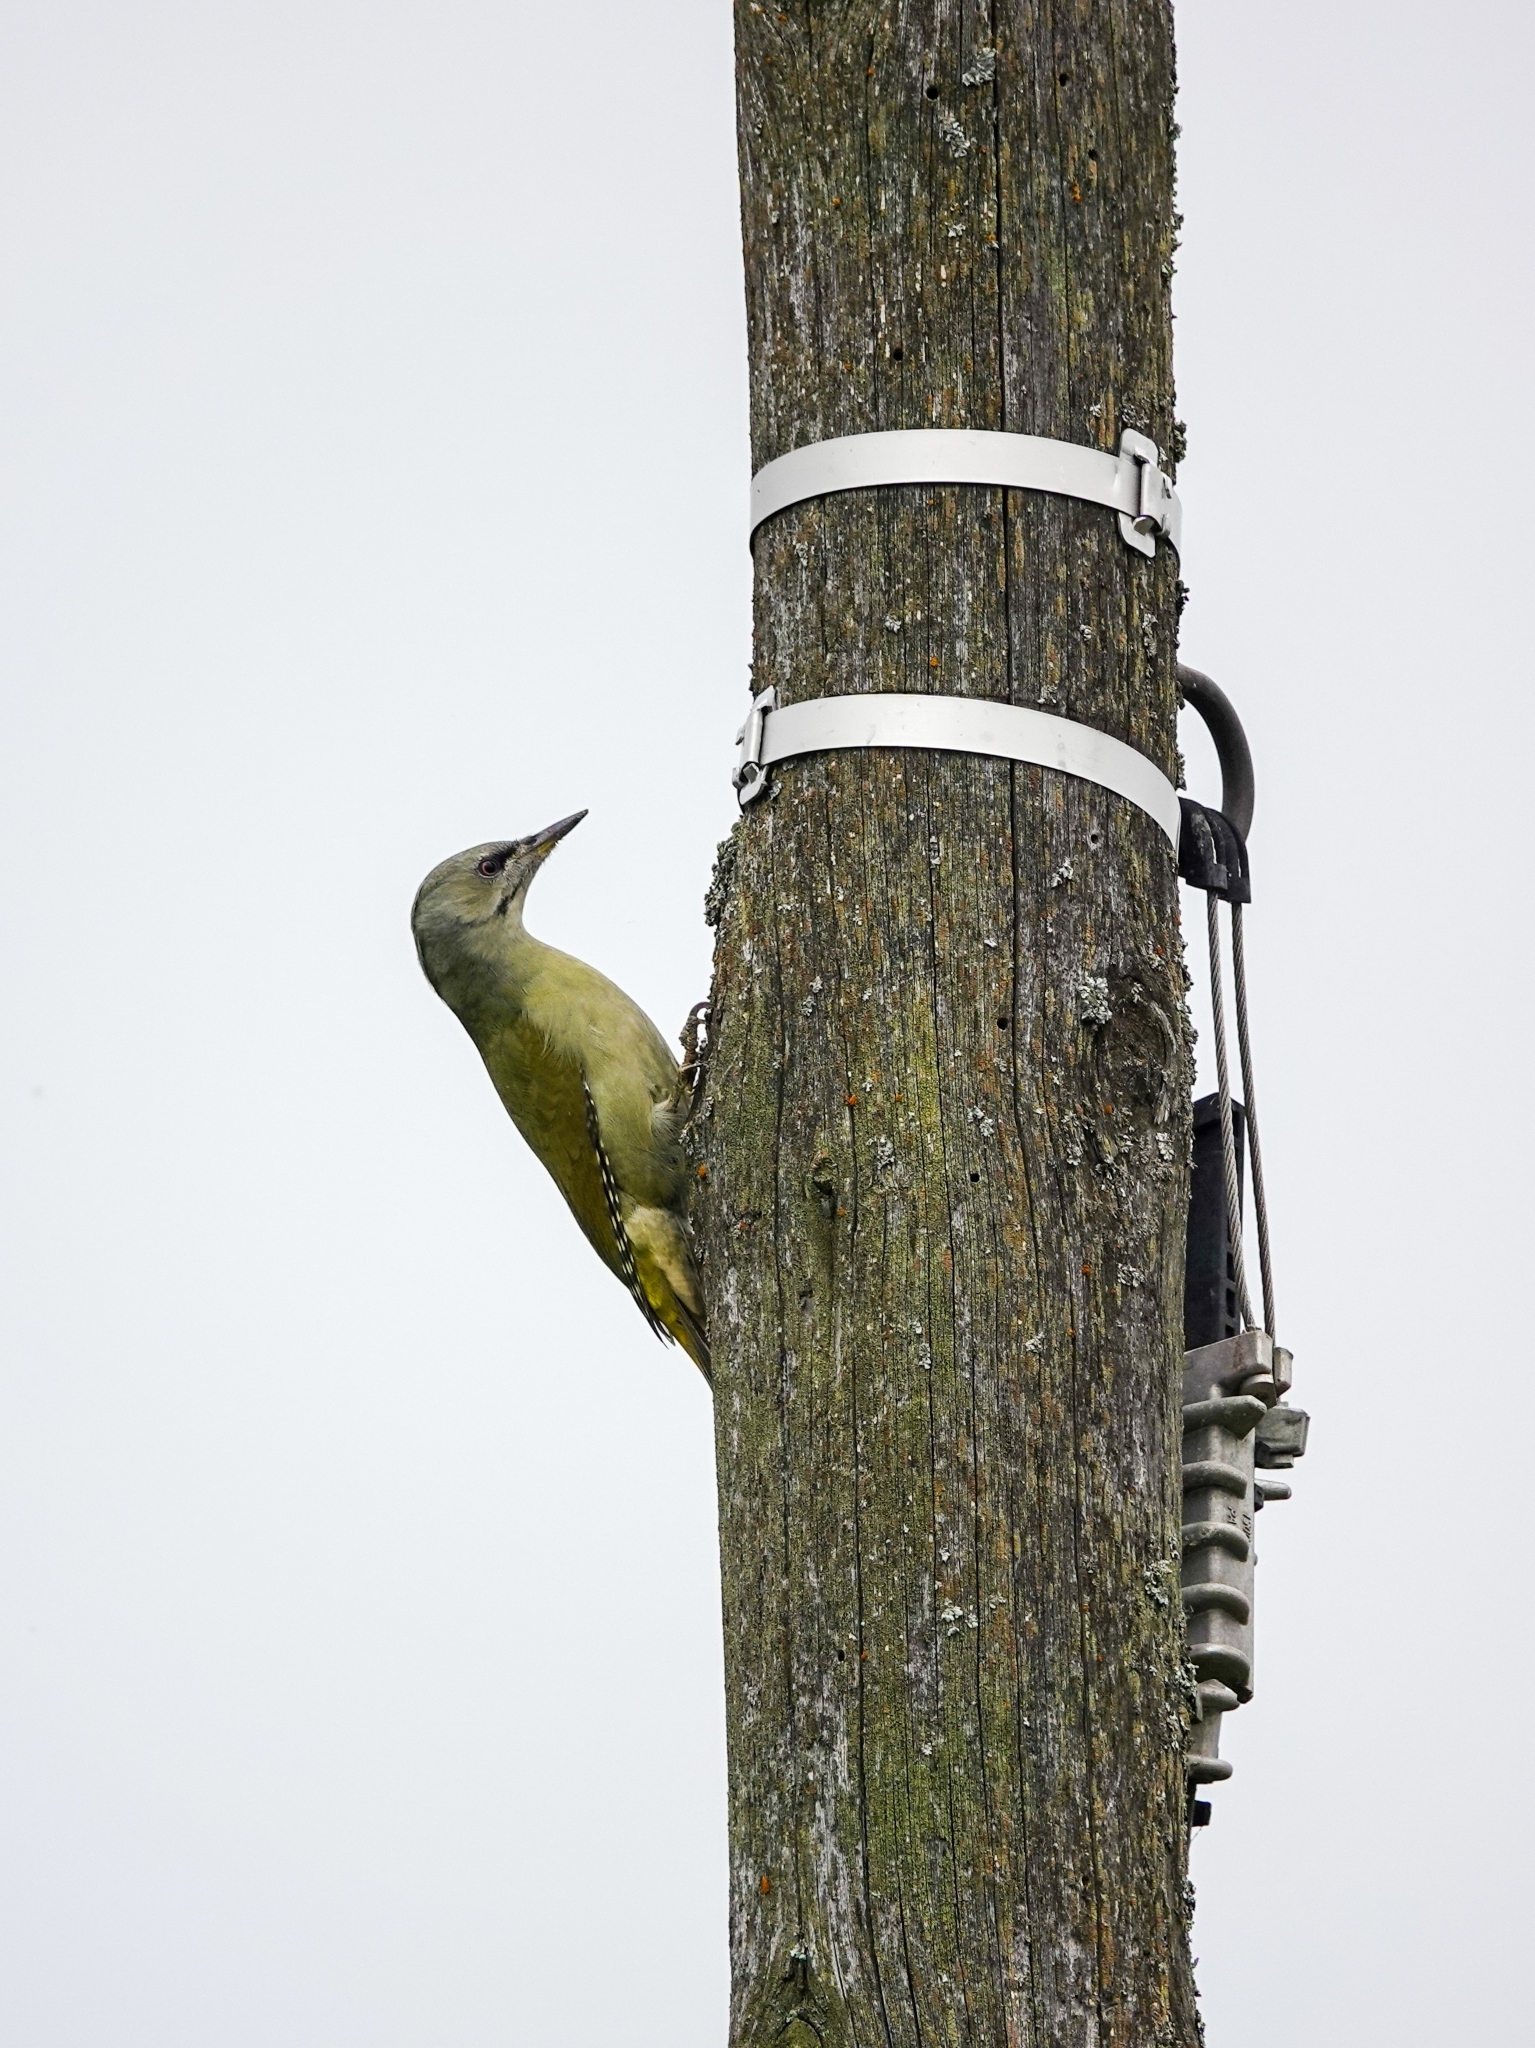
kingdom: Animalia
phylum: Chordata
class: Aves
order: Piciformes
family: Picidae
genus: Picus
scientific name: Picus canus
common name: Grey-headed woodpecker
